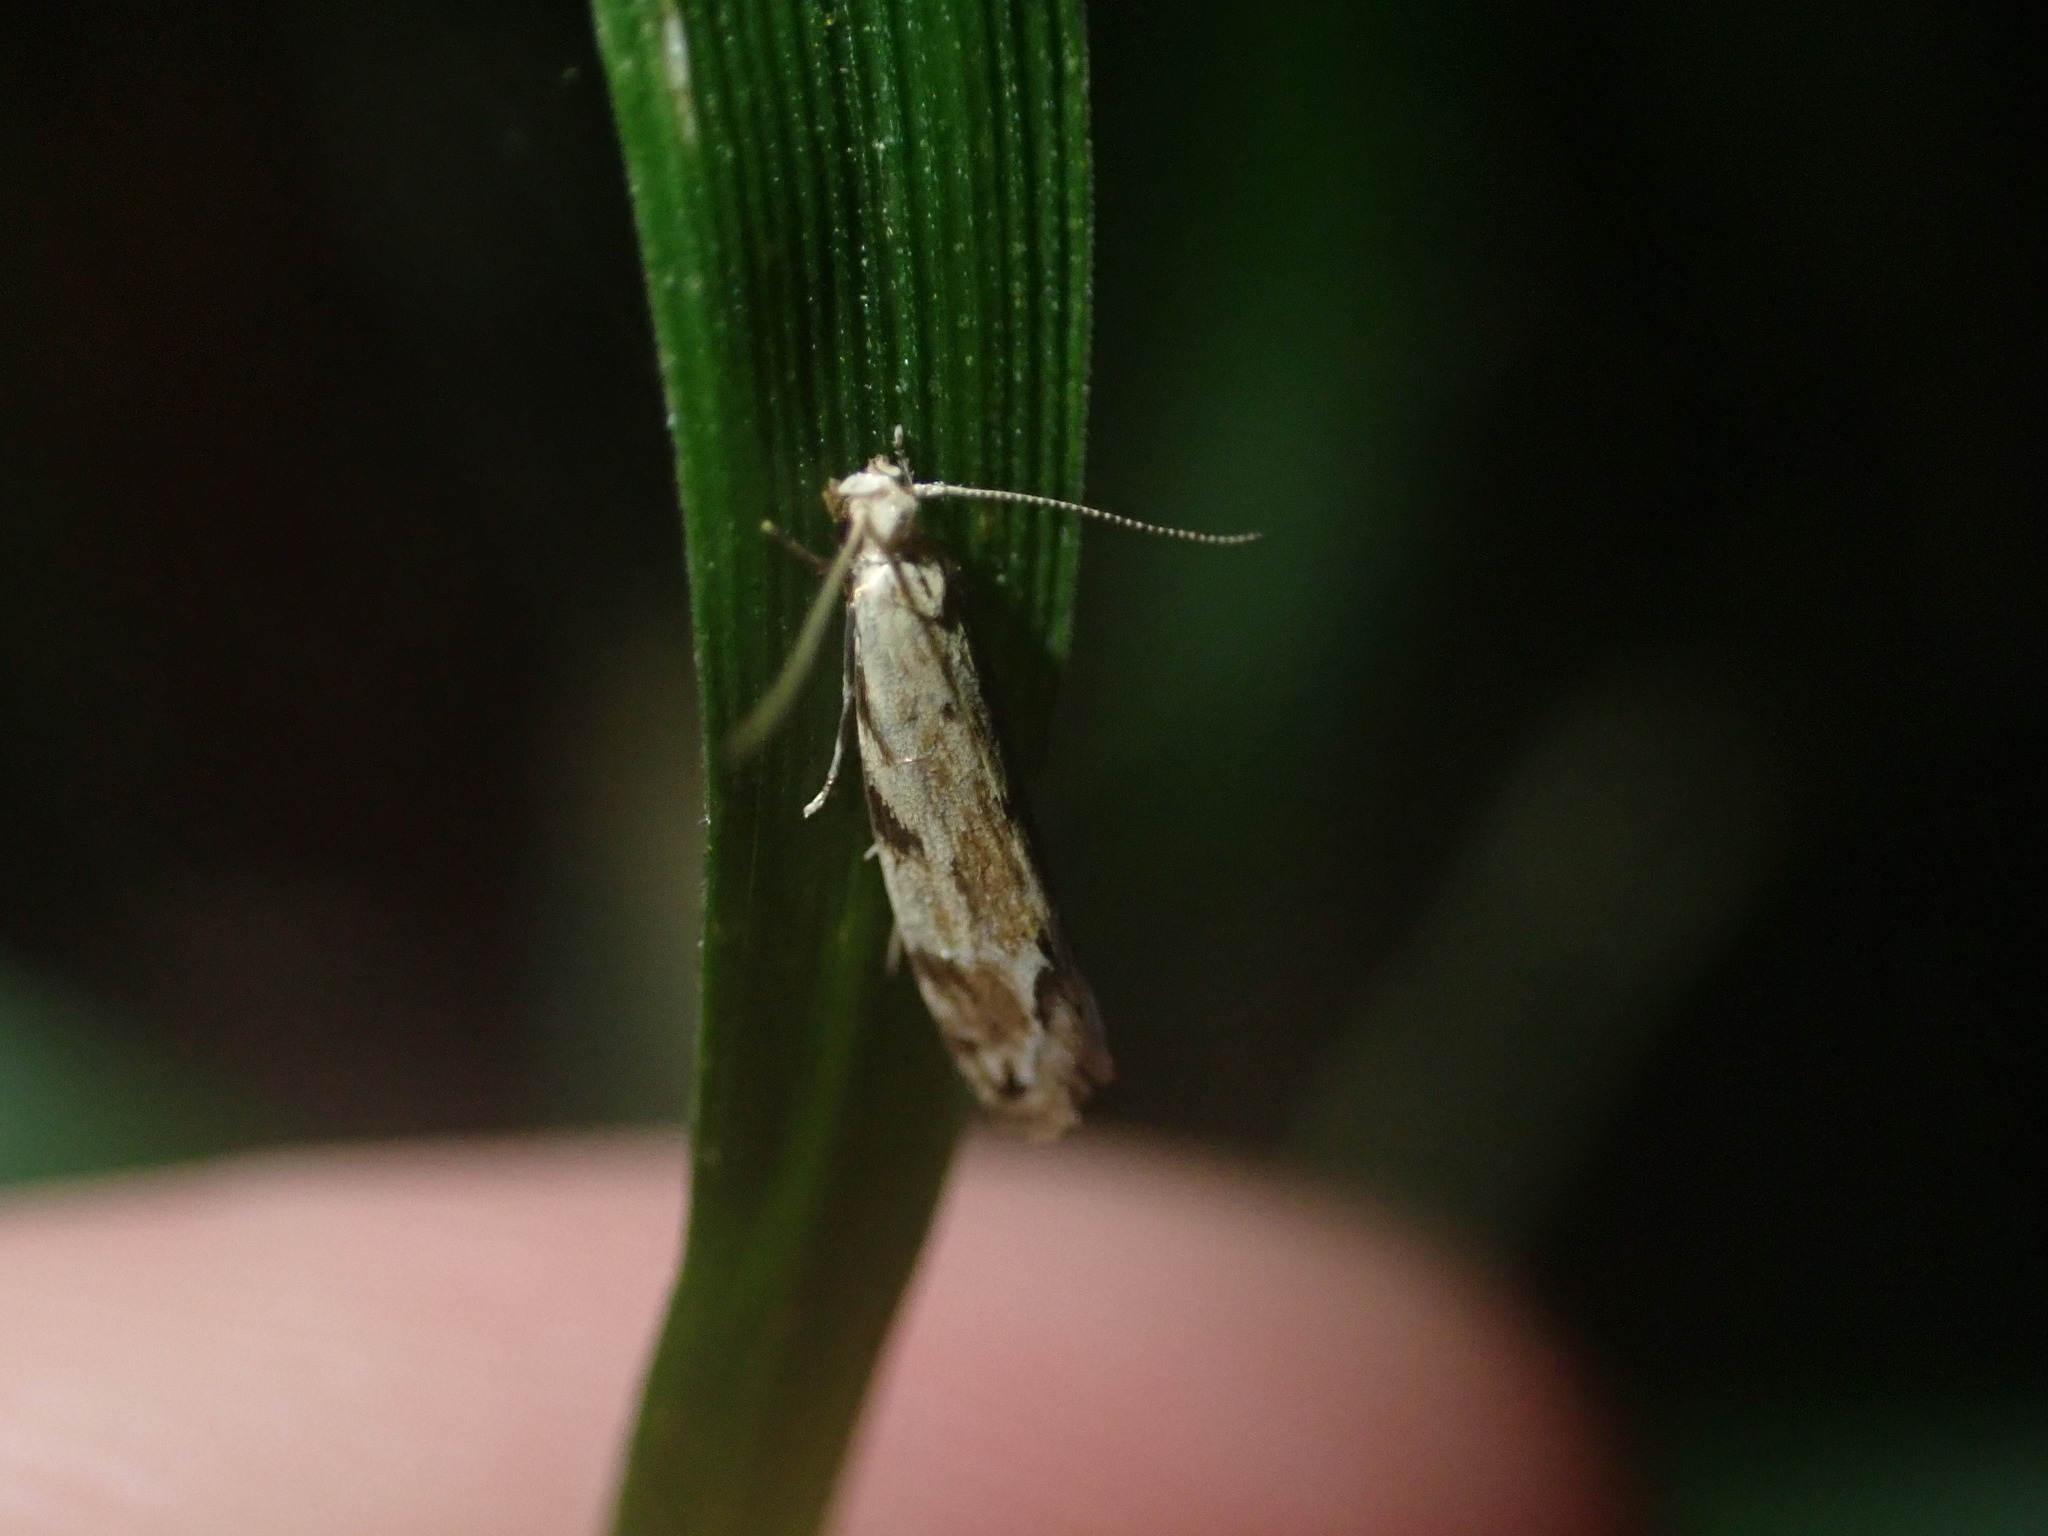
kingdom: Animalia
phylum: Arthropoda
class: Insecta
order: Lepidoptera
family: Dryadaulidae
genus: Dryadaula
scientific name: Dryadaula myrrhina
